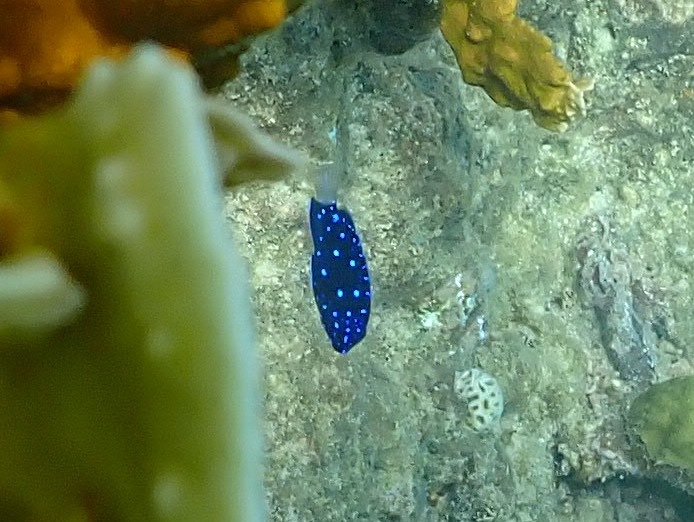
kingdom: Animalia
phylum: Chordata
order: Perciformes
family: Pomacentridae
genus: Microspathodon
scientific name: Microspathodon chrysurus
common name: Yellowtail damselfish
